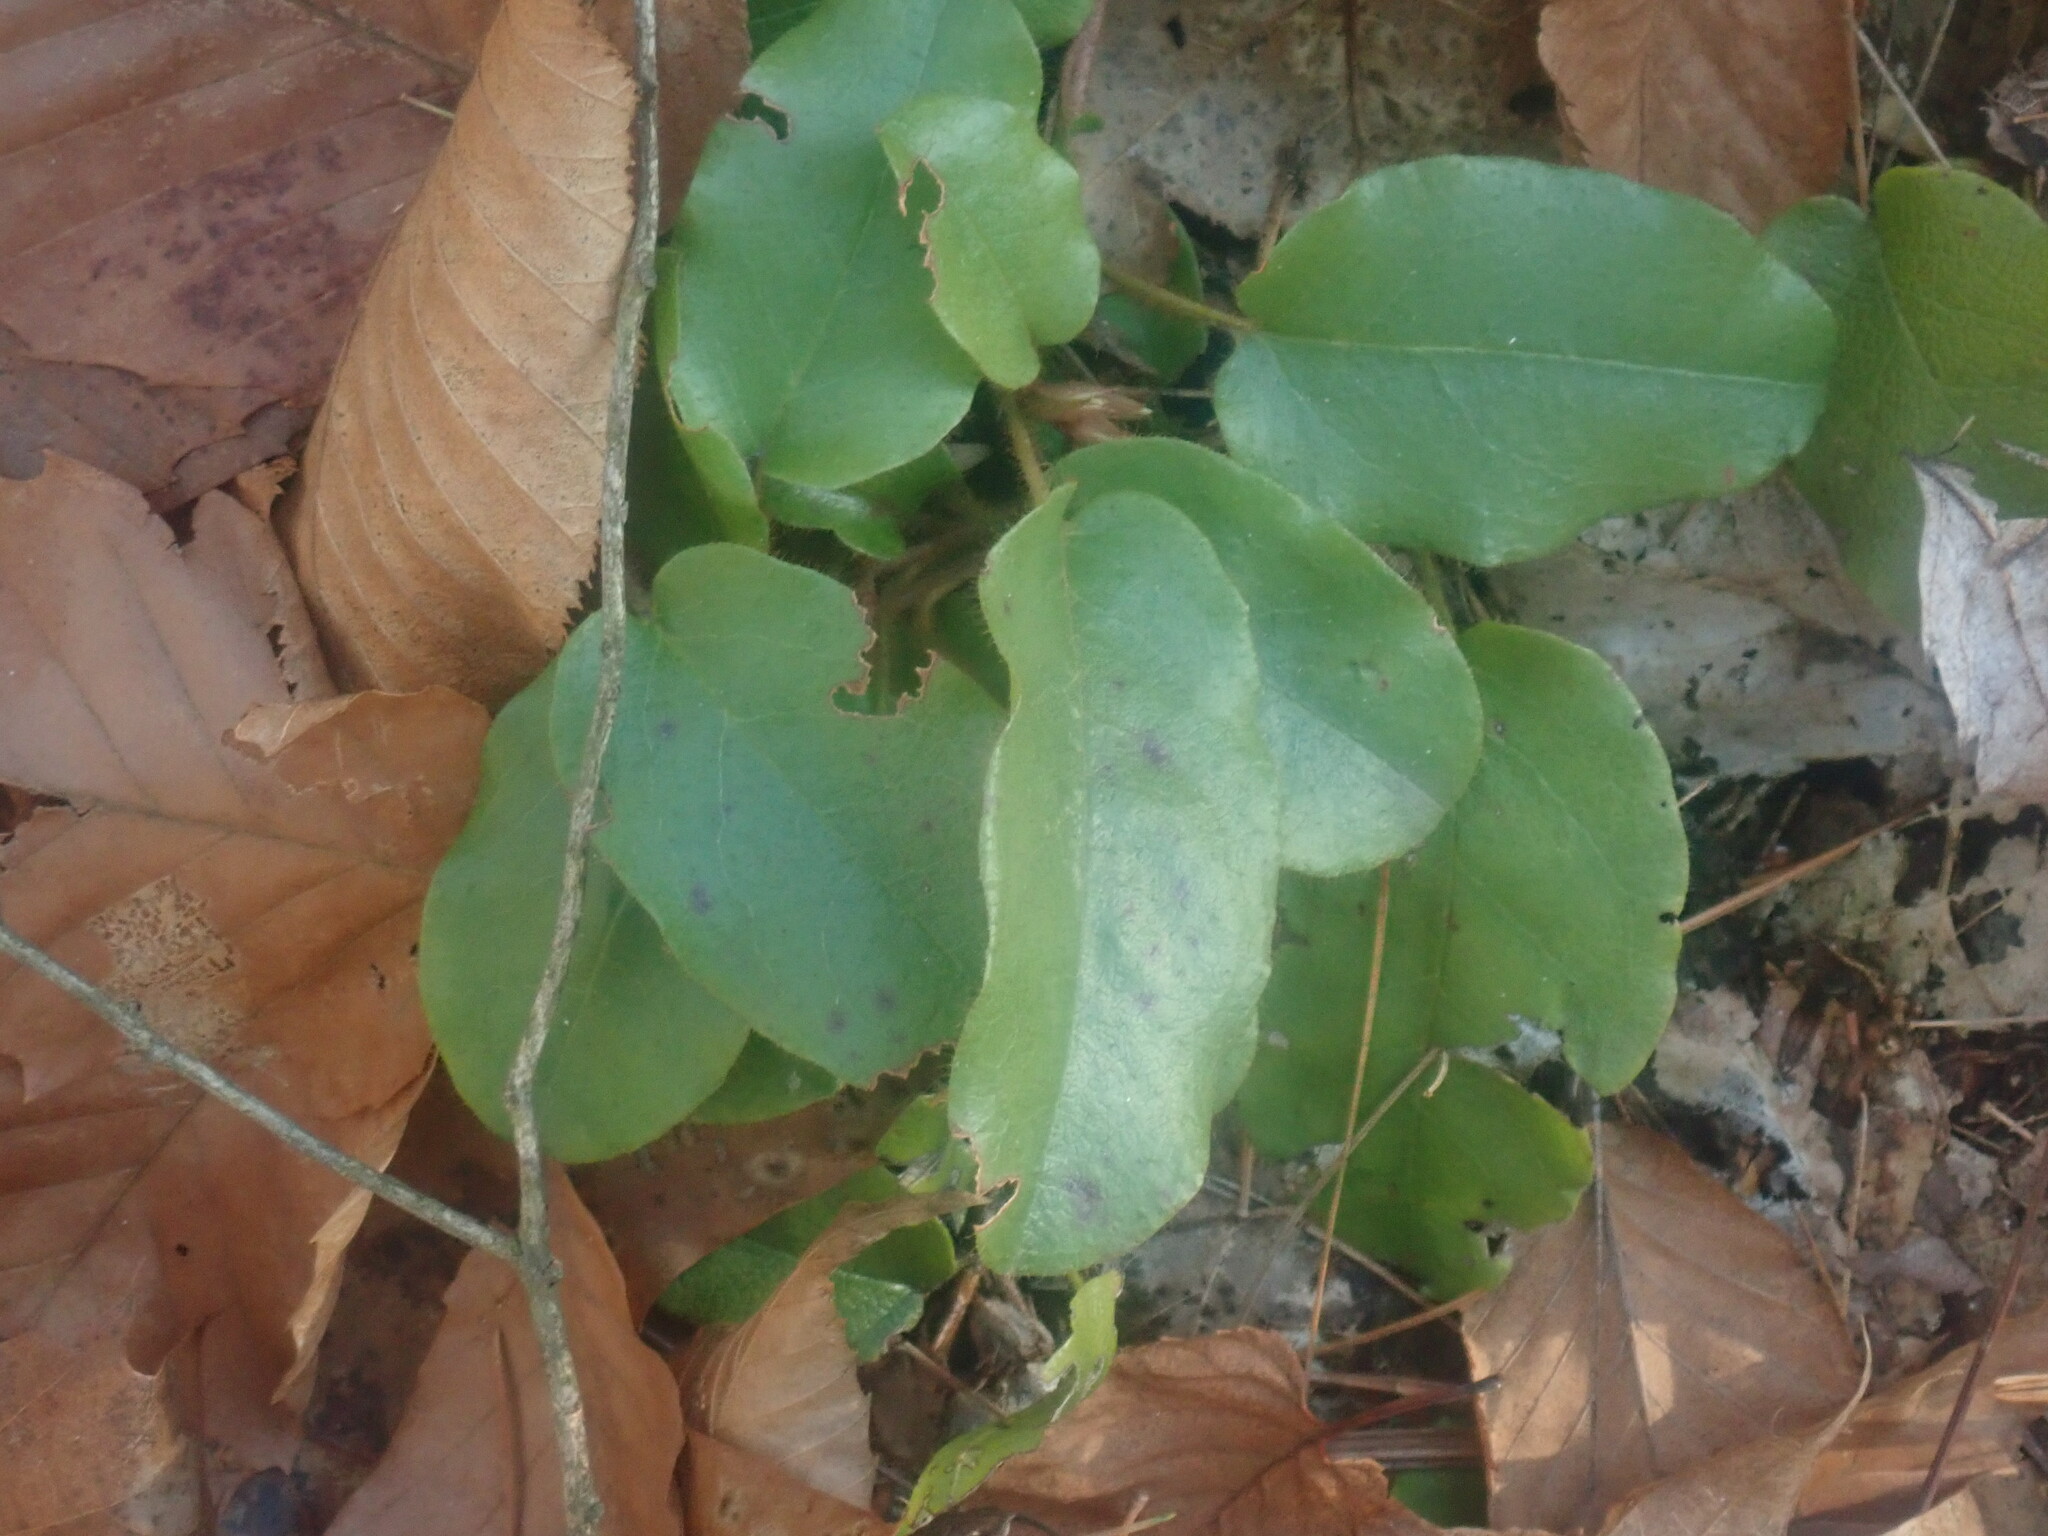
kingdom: Plantae
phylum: Tracheophyta
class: Magnoliopsida
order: Ericales
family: Ericaceae
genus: Epigaea
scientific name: Epigaea repens
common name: Gravelroot
